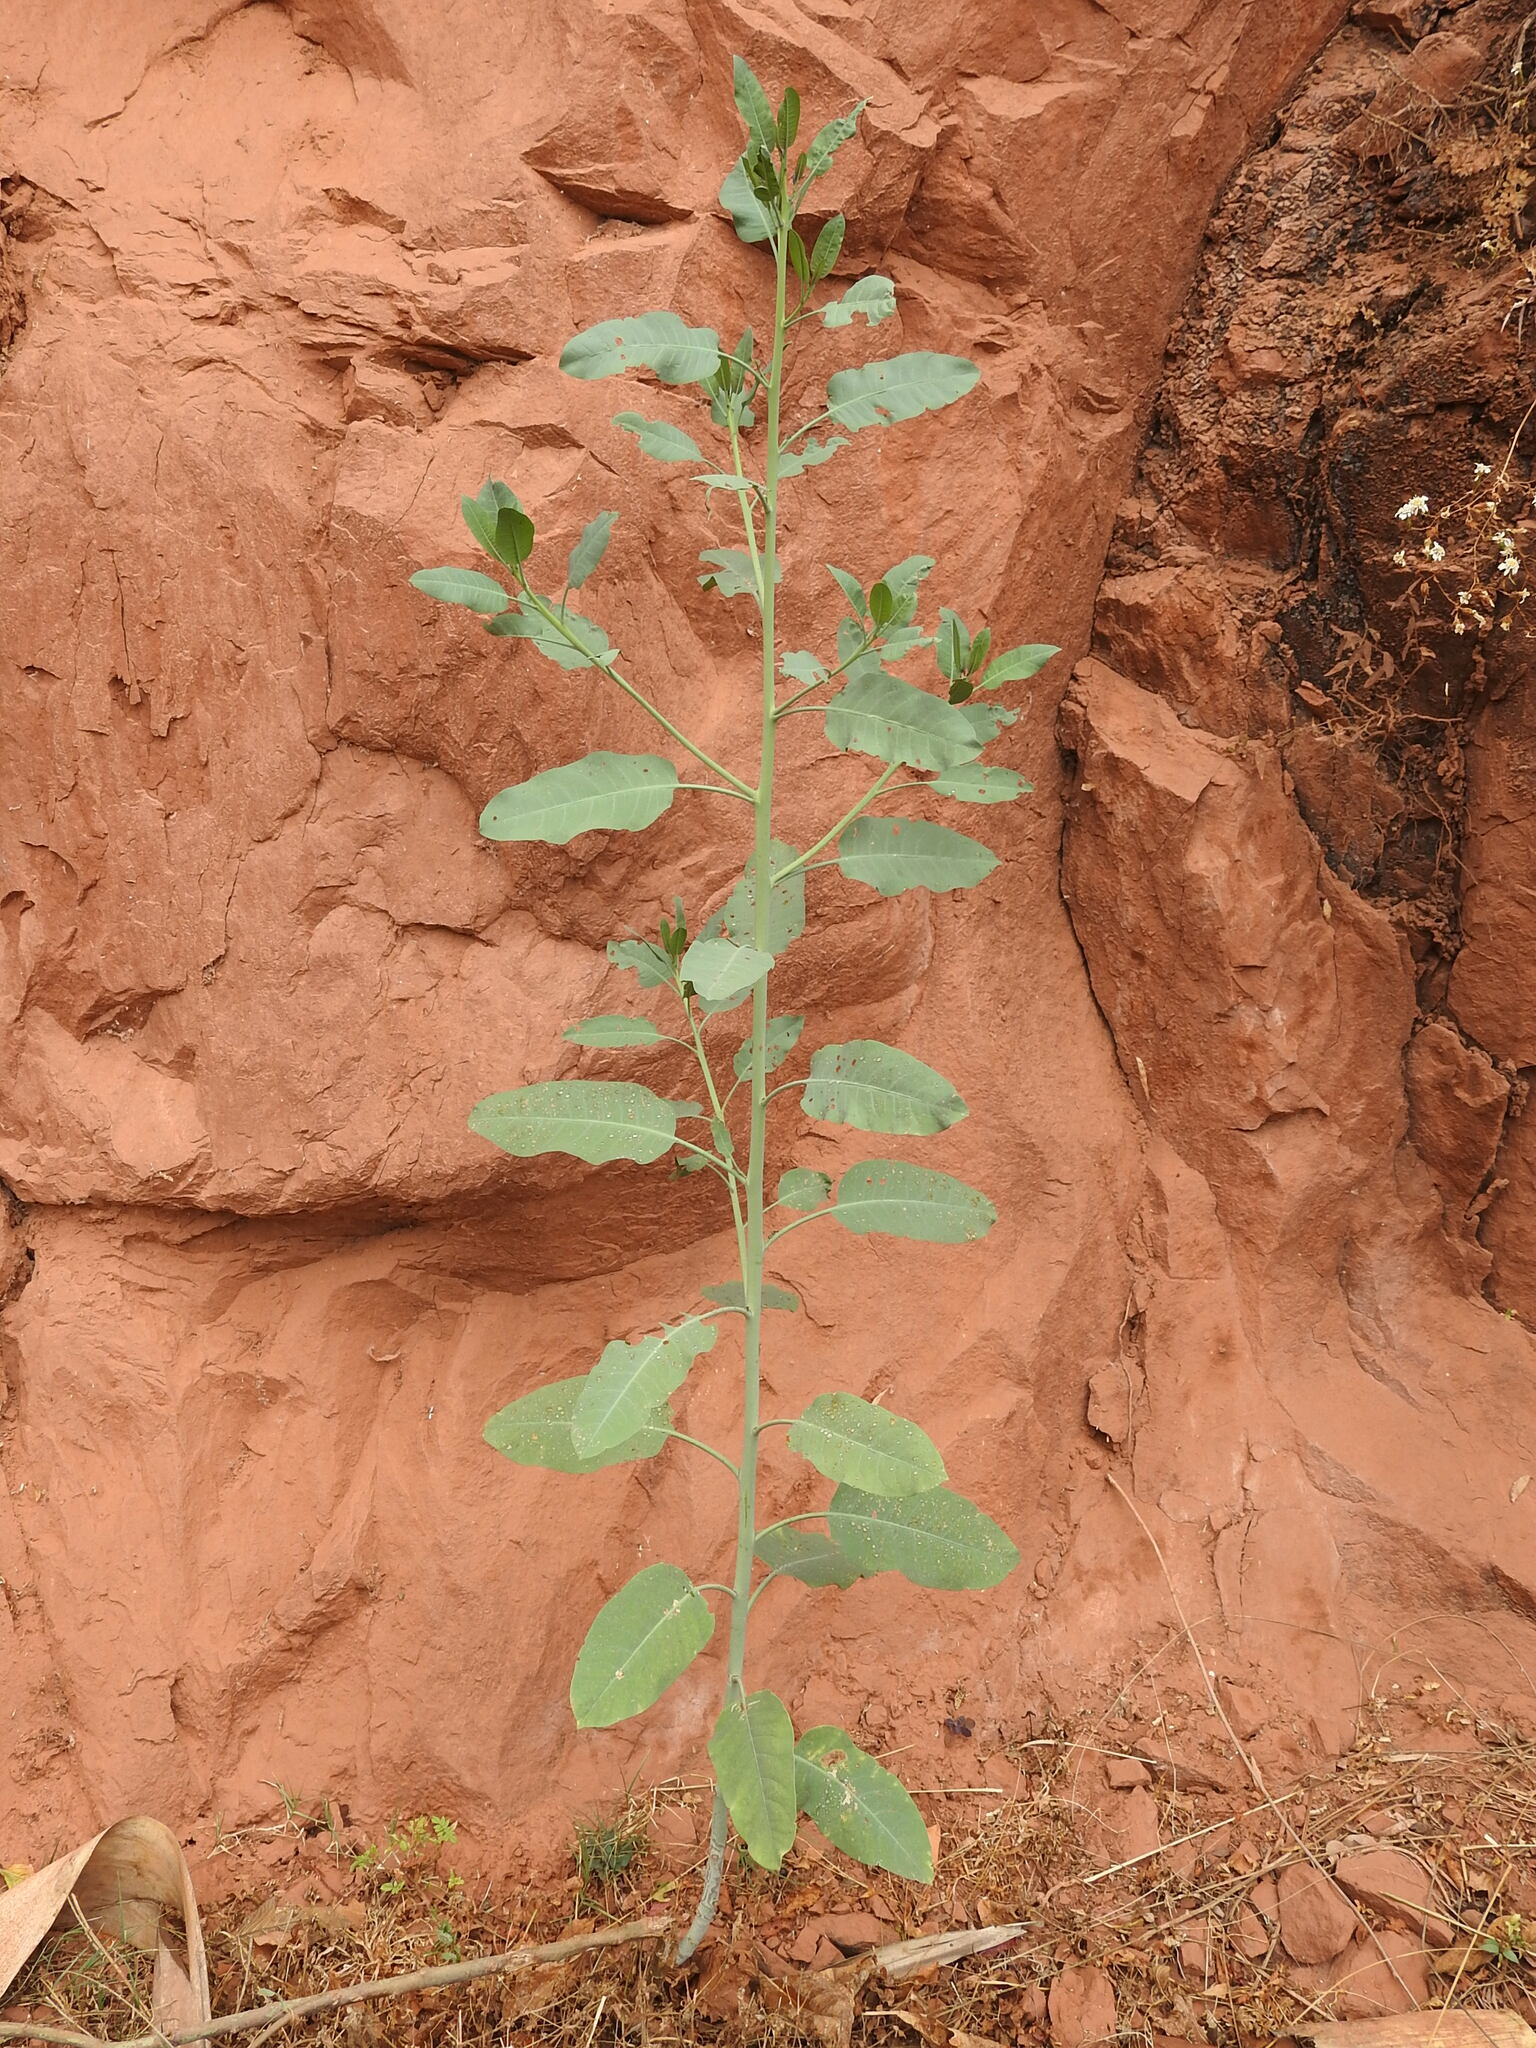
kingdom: Plantae
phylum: Tracheophyta
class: Magnoliopsida
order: Solanales
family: Solanaceae
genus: Nicotiana
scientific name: Nicotiana glauca
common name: Tree tobacco
